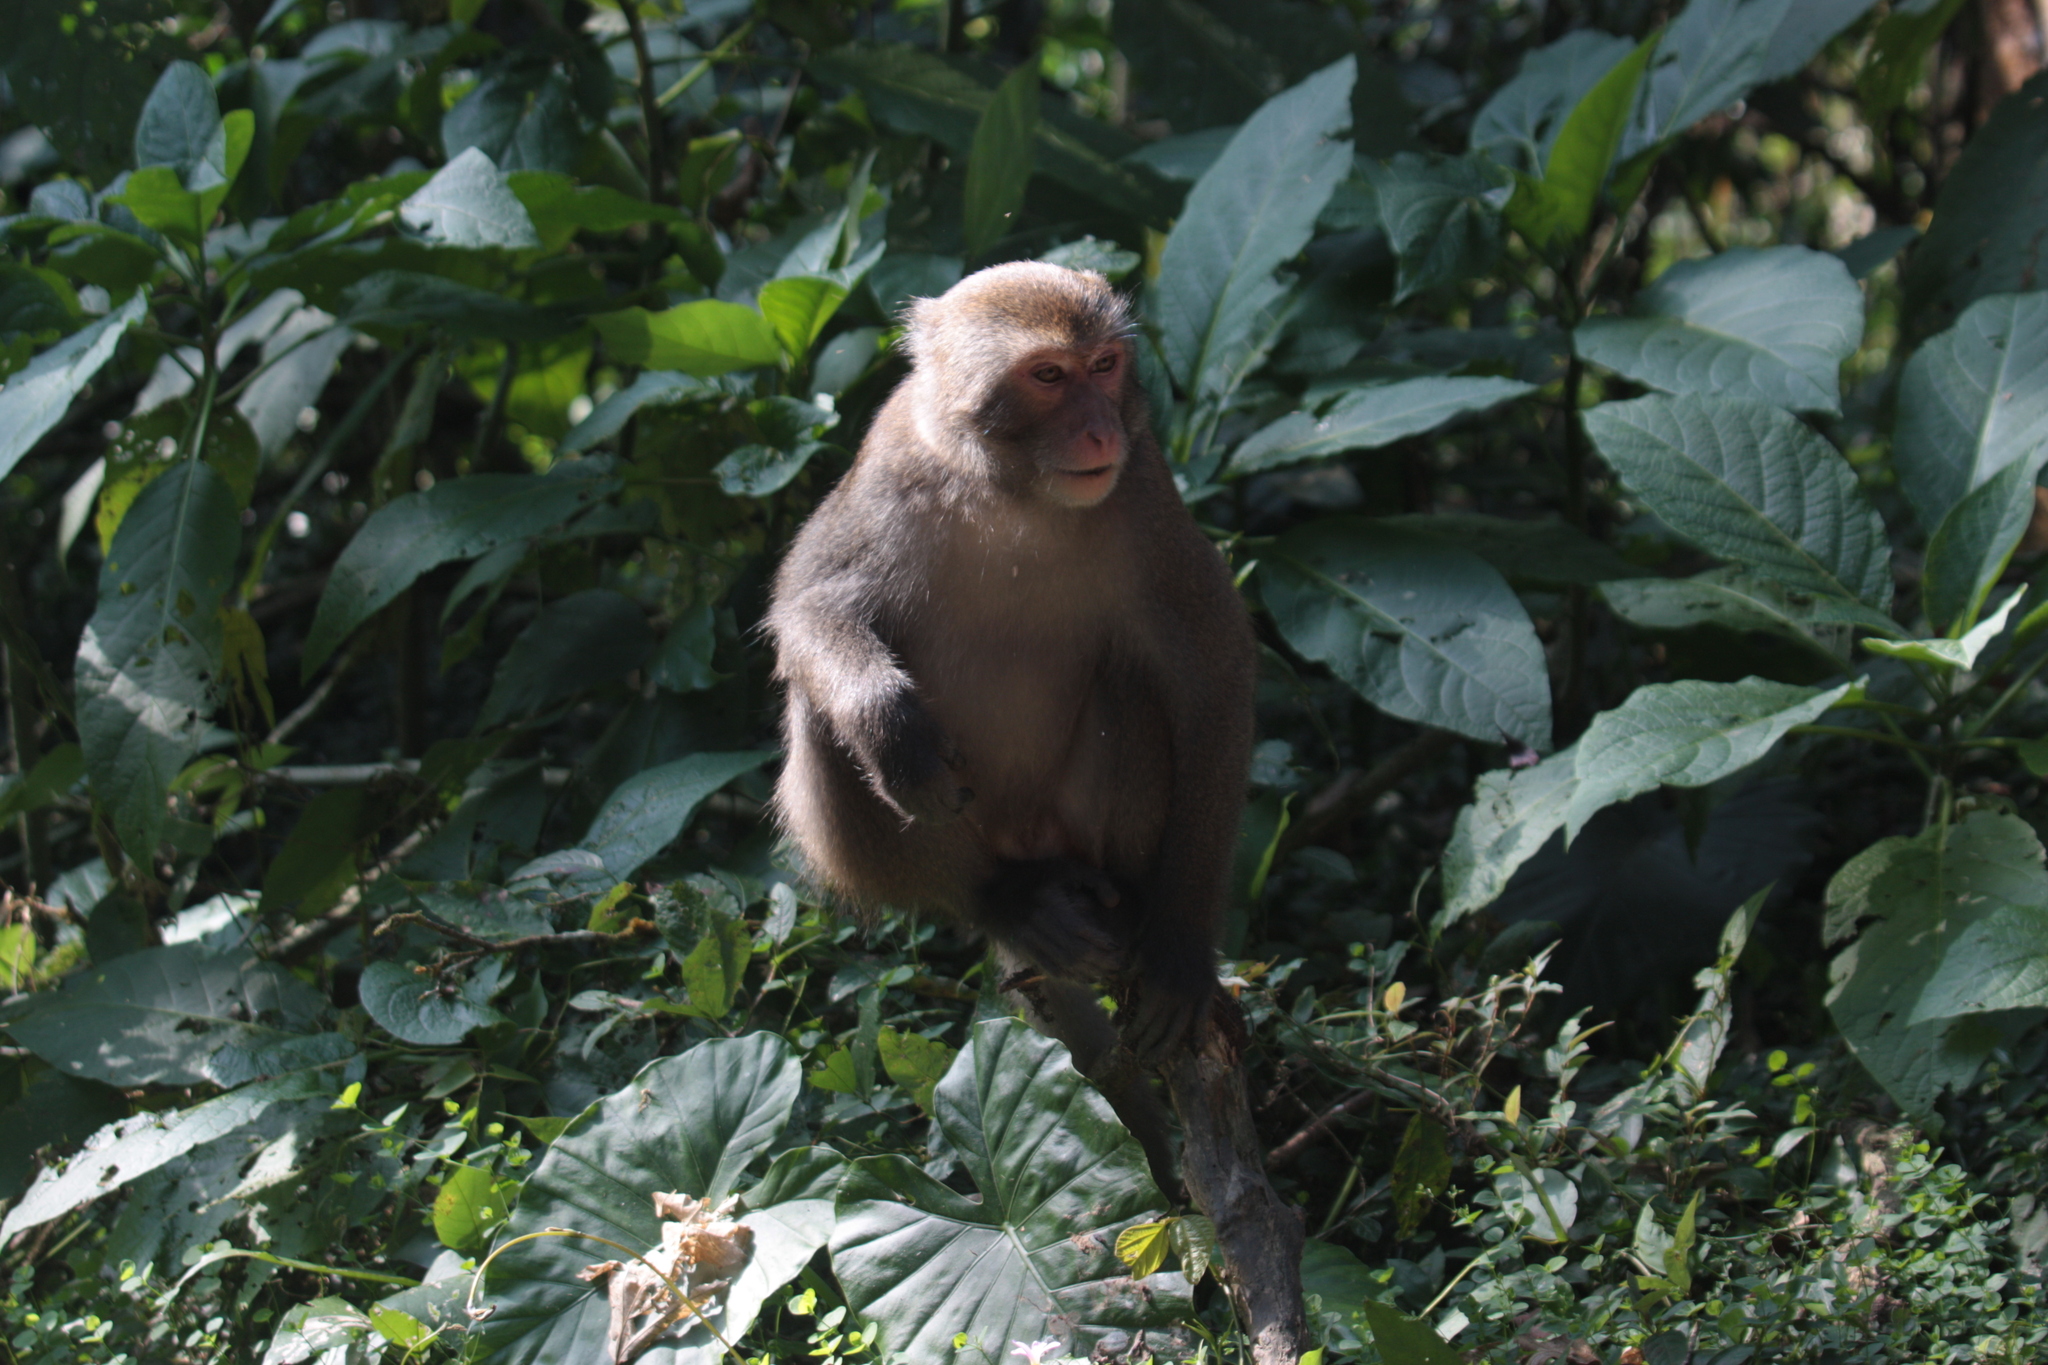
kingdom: Animalia
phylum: Chordata
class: Mammalia
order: Primates
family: Cercopithecidae
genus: Macaca
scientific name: Macaca cyclopis
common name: Formosan rock macaque
